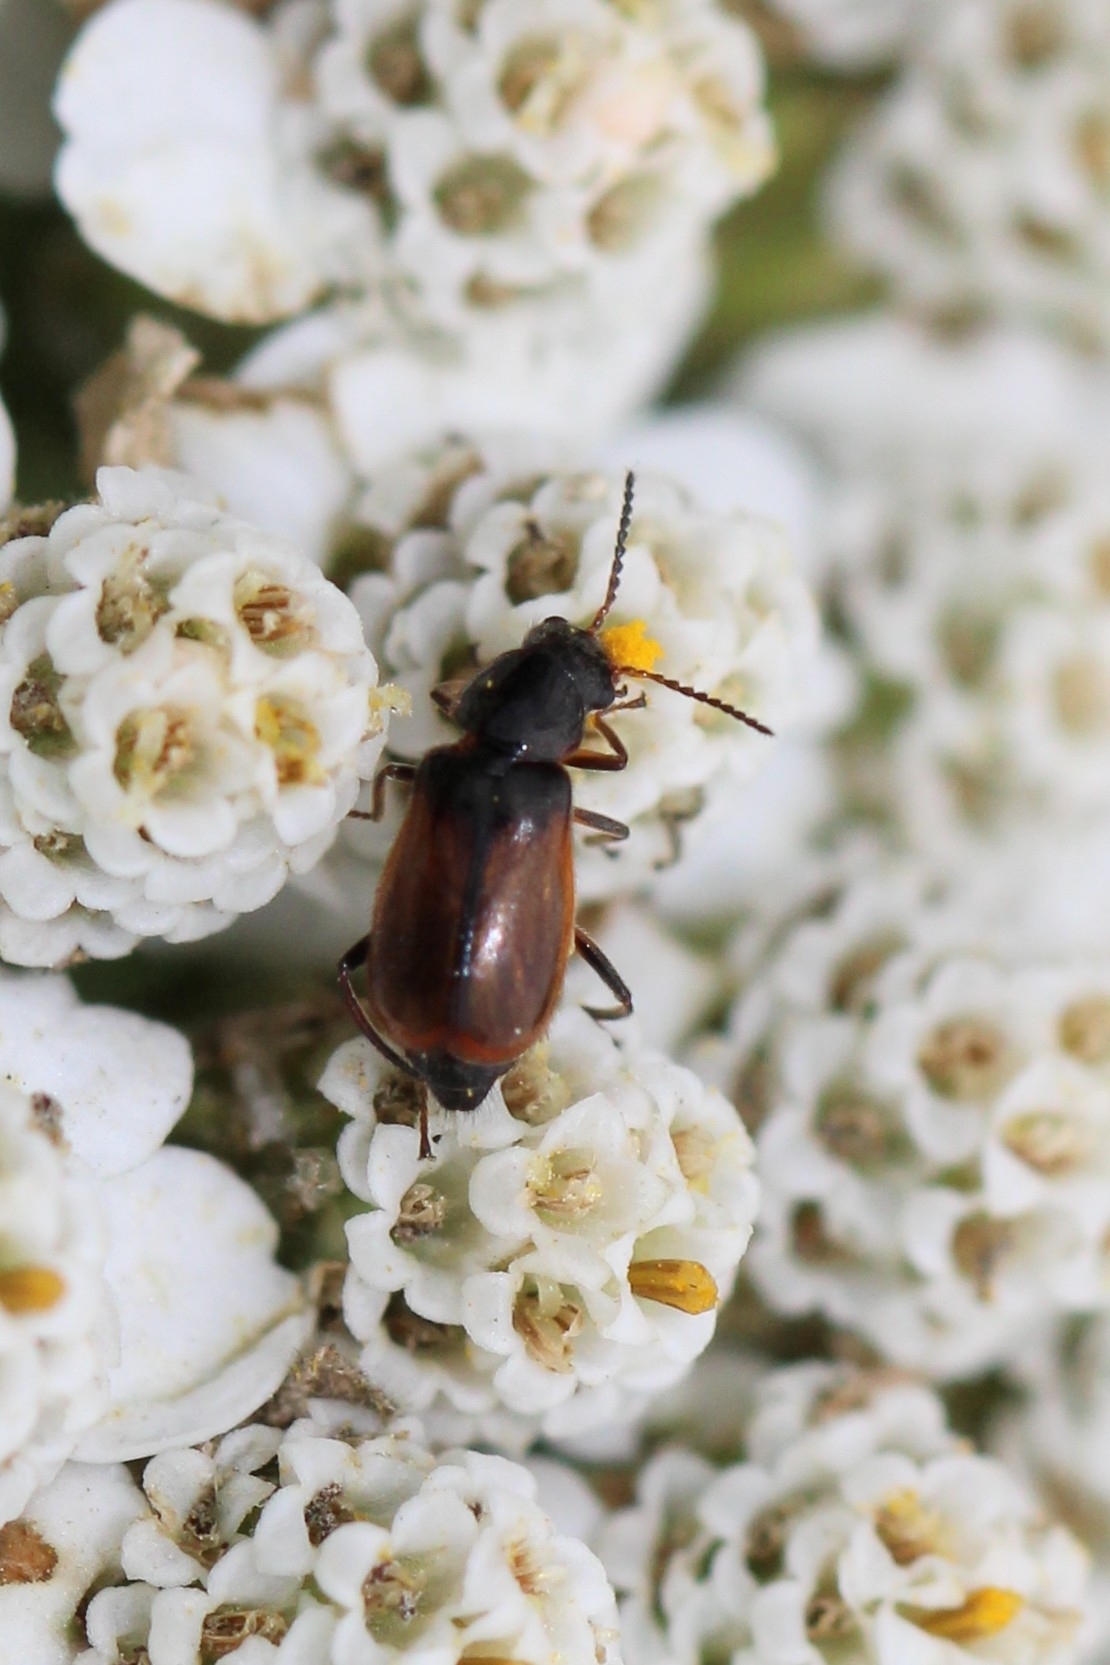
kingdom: Animalia
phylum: Arthropoda
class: Insecta
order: Coleoptera
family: Malachiidae
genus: Attalus
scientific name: Attalus
